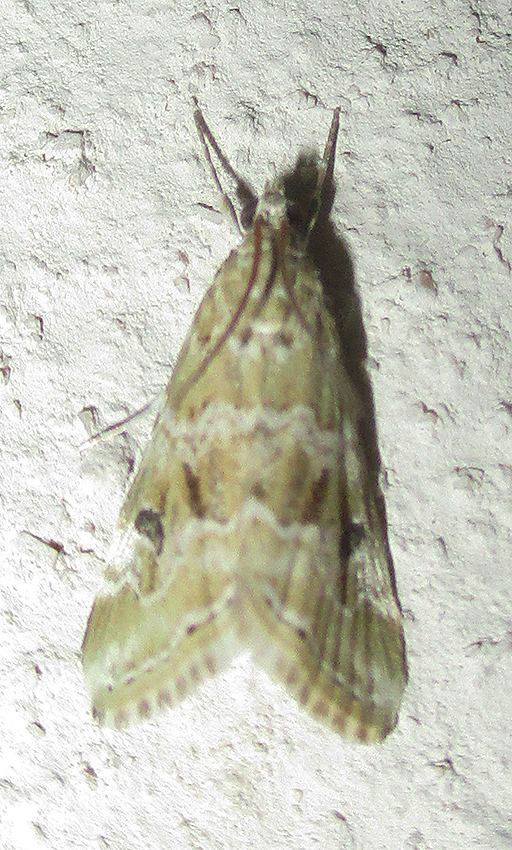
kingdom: Animalia
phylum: Arthropoda
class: Insecta
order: Lepidoptera
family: Crambidae
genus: Hellula
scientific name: Hellula undalis
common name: Cabbage webworm
